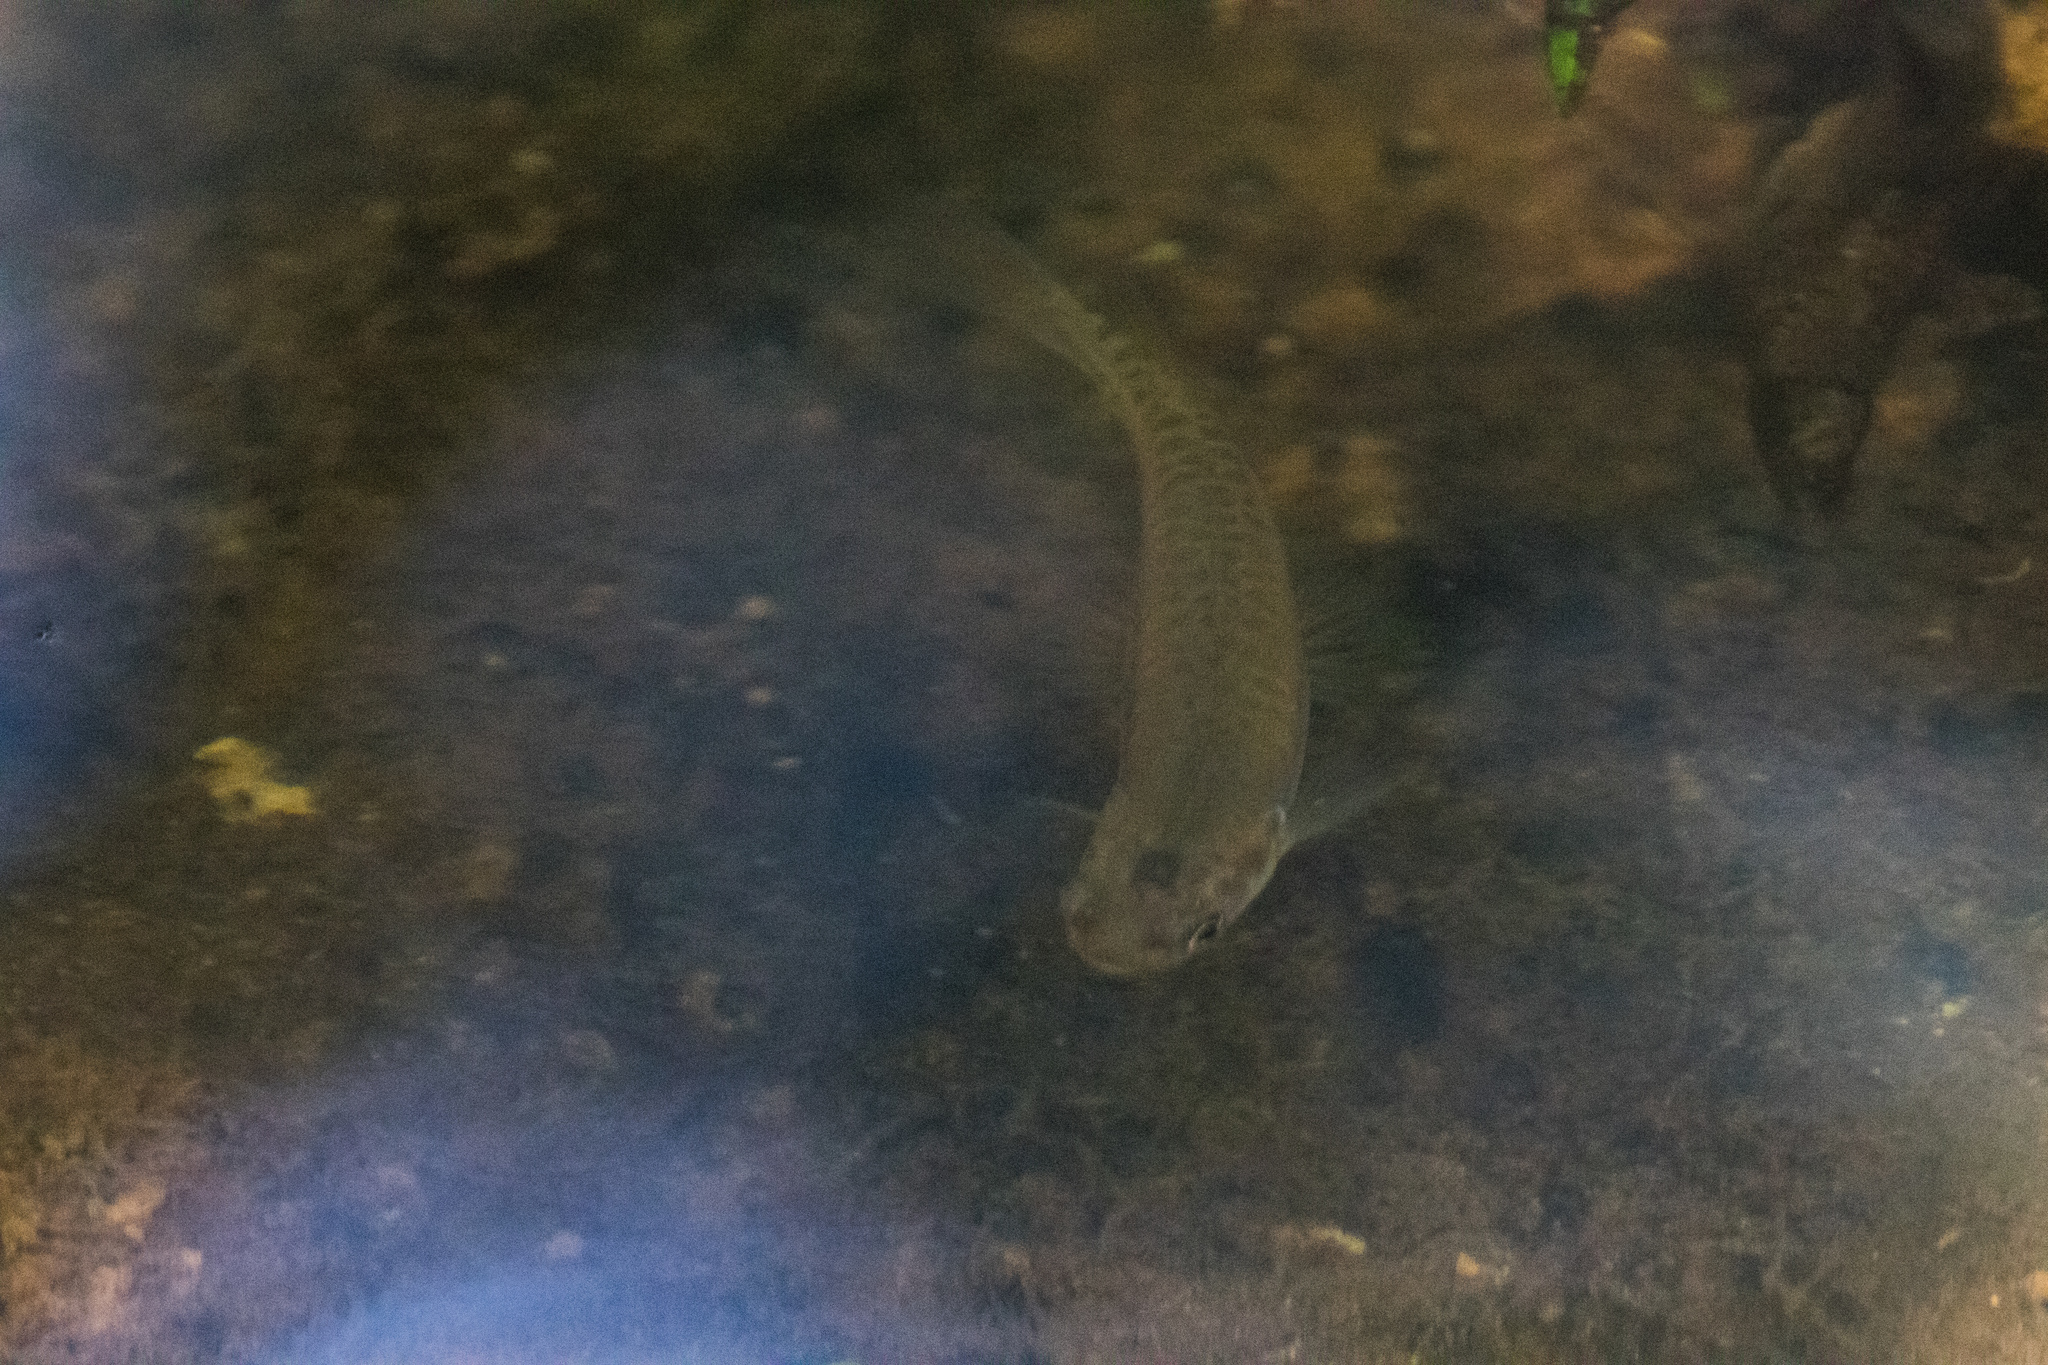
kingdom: Animalia
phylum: Chordata
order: Osmeriformes
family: Galaxiidae
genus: Galaxias
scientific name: Galaxias fasciatus
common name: Banded kokopu
